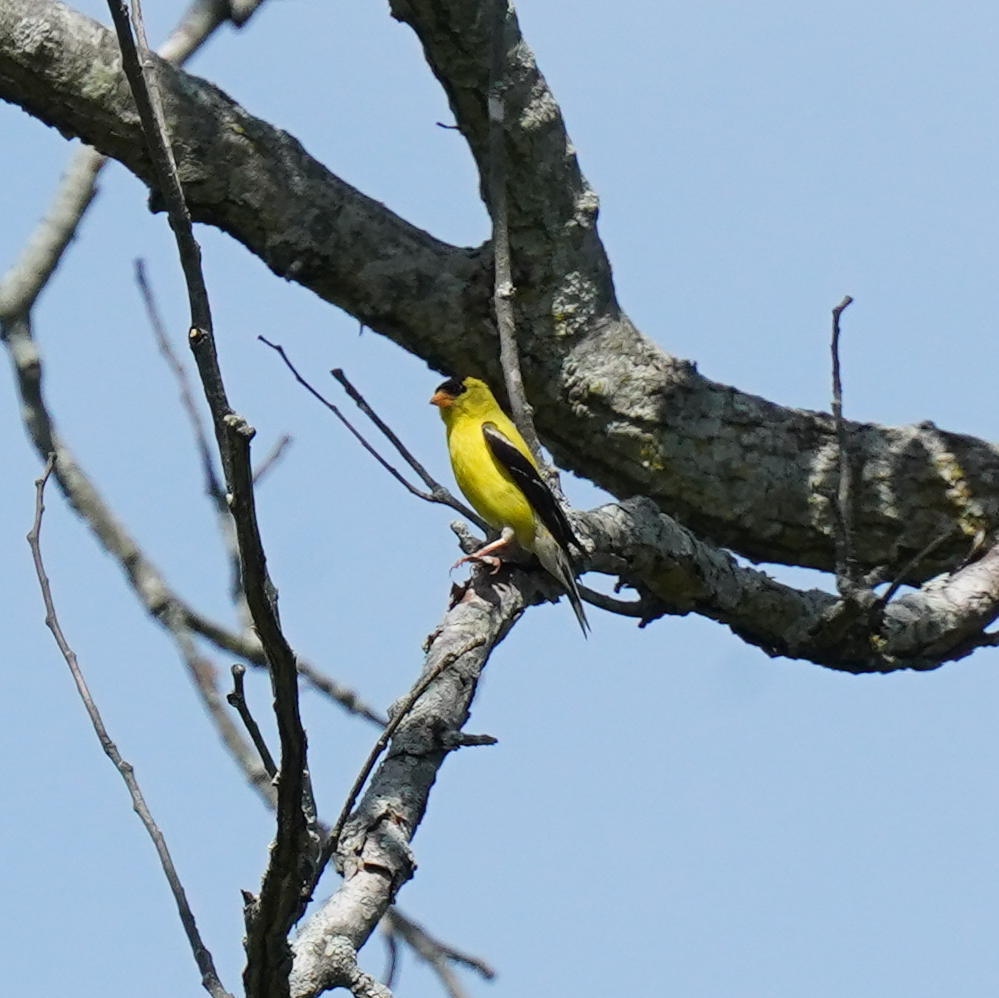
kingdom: Animalia
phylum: Chordata
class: Aves
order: Passeriformes
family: Fringillidae
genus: Spinus
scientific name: Spinus tristis
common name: American goldfinch
